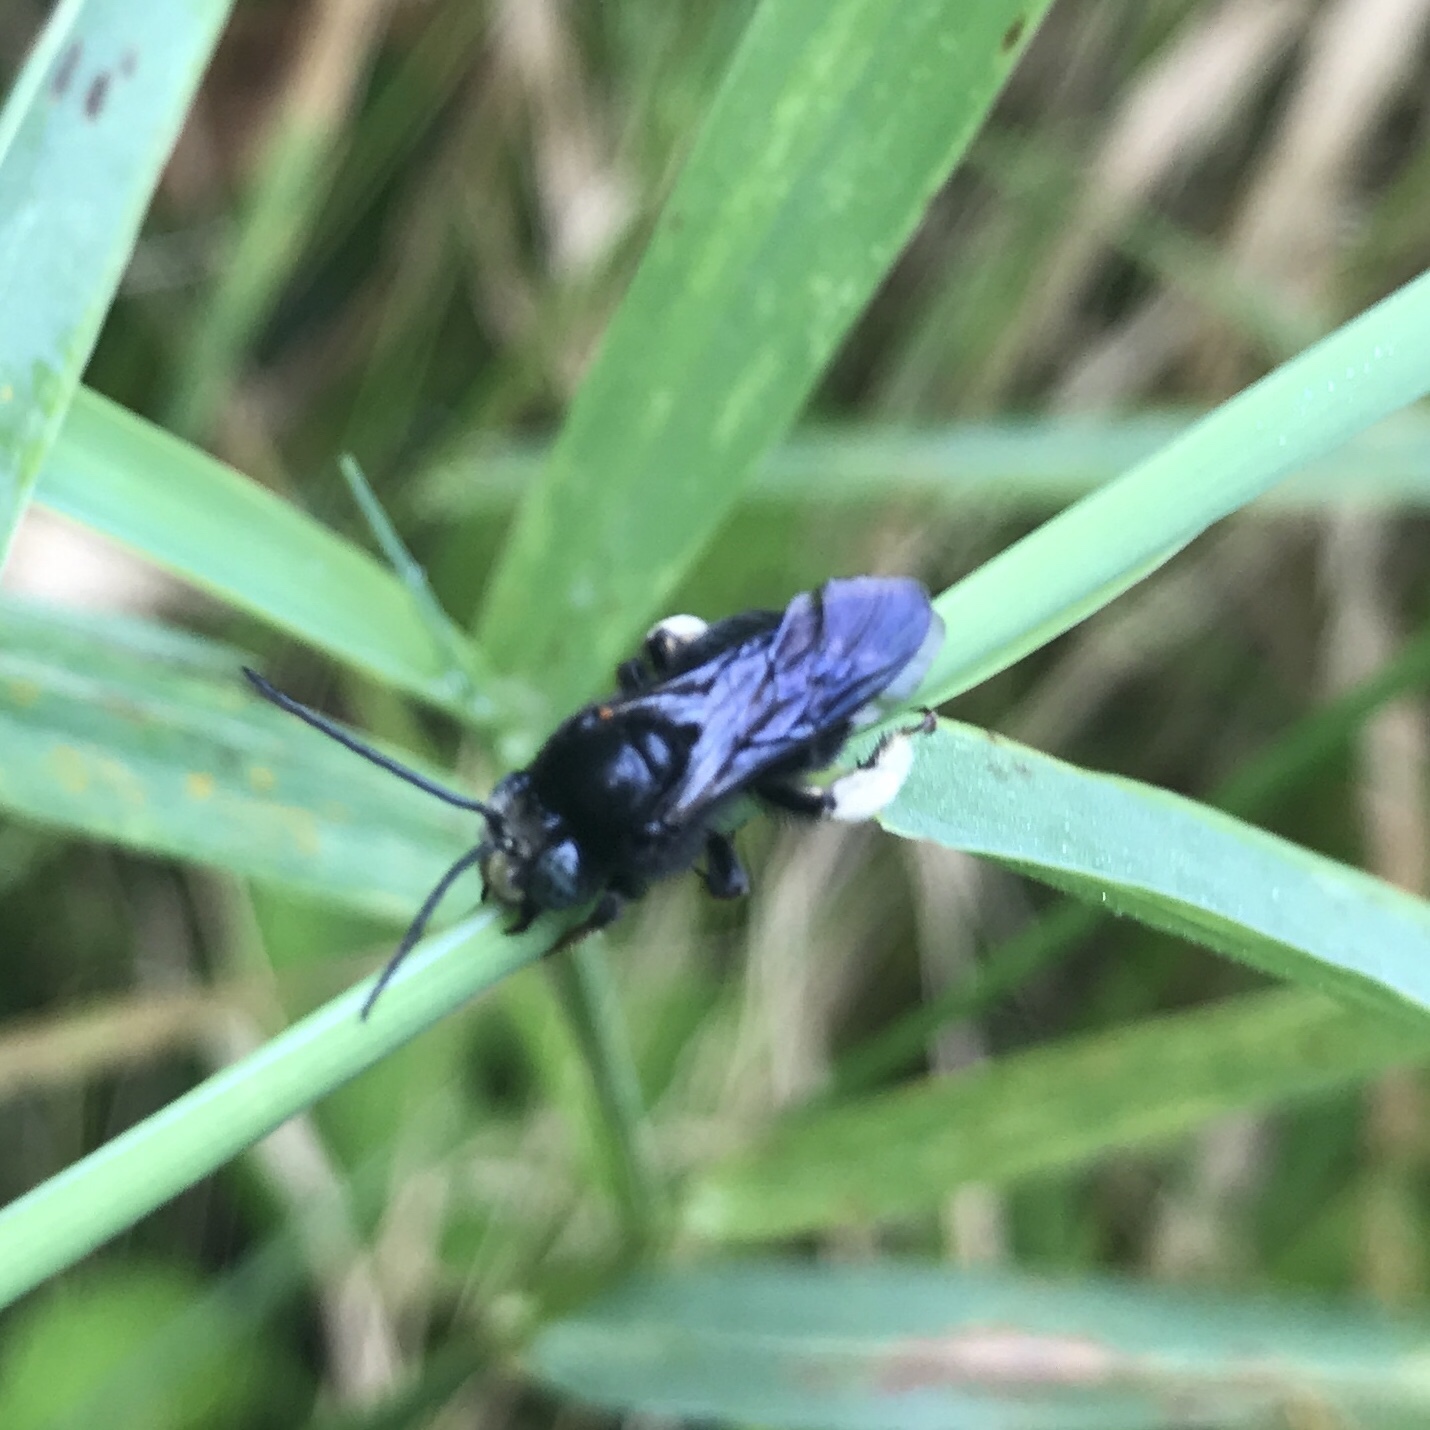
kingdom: Animalia
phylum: Arthropoda
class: Insecta
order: Hymenoptera
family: Apidae
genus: Melissodes
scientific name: Melissodes bimaculatus
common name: Two-spotted long-horned bee
